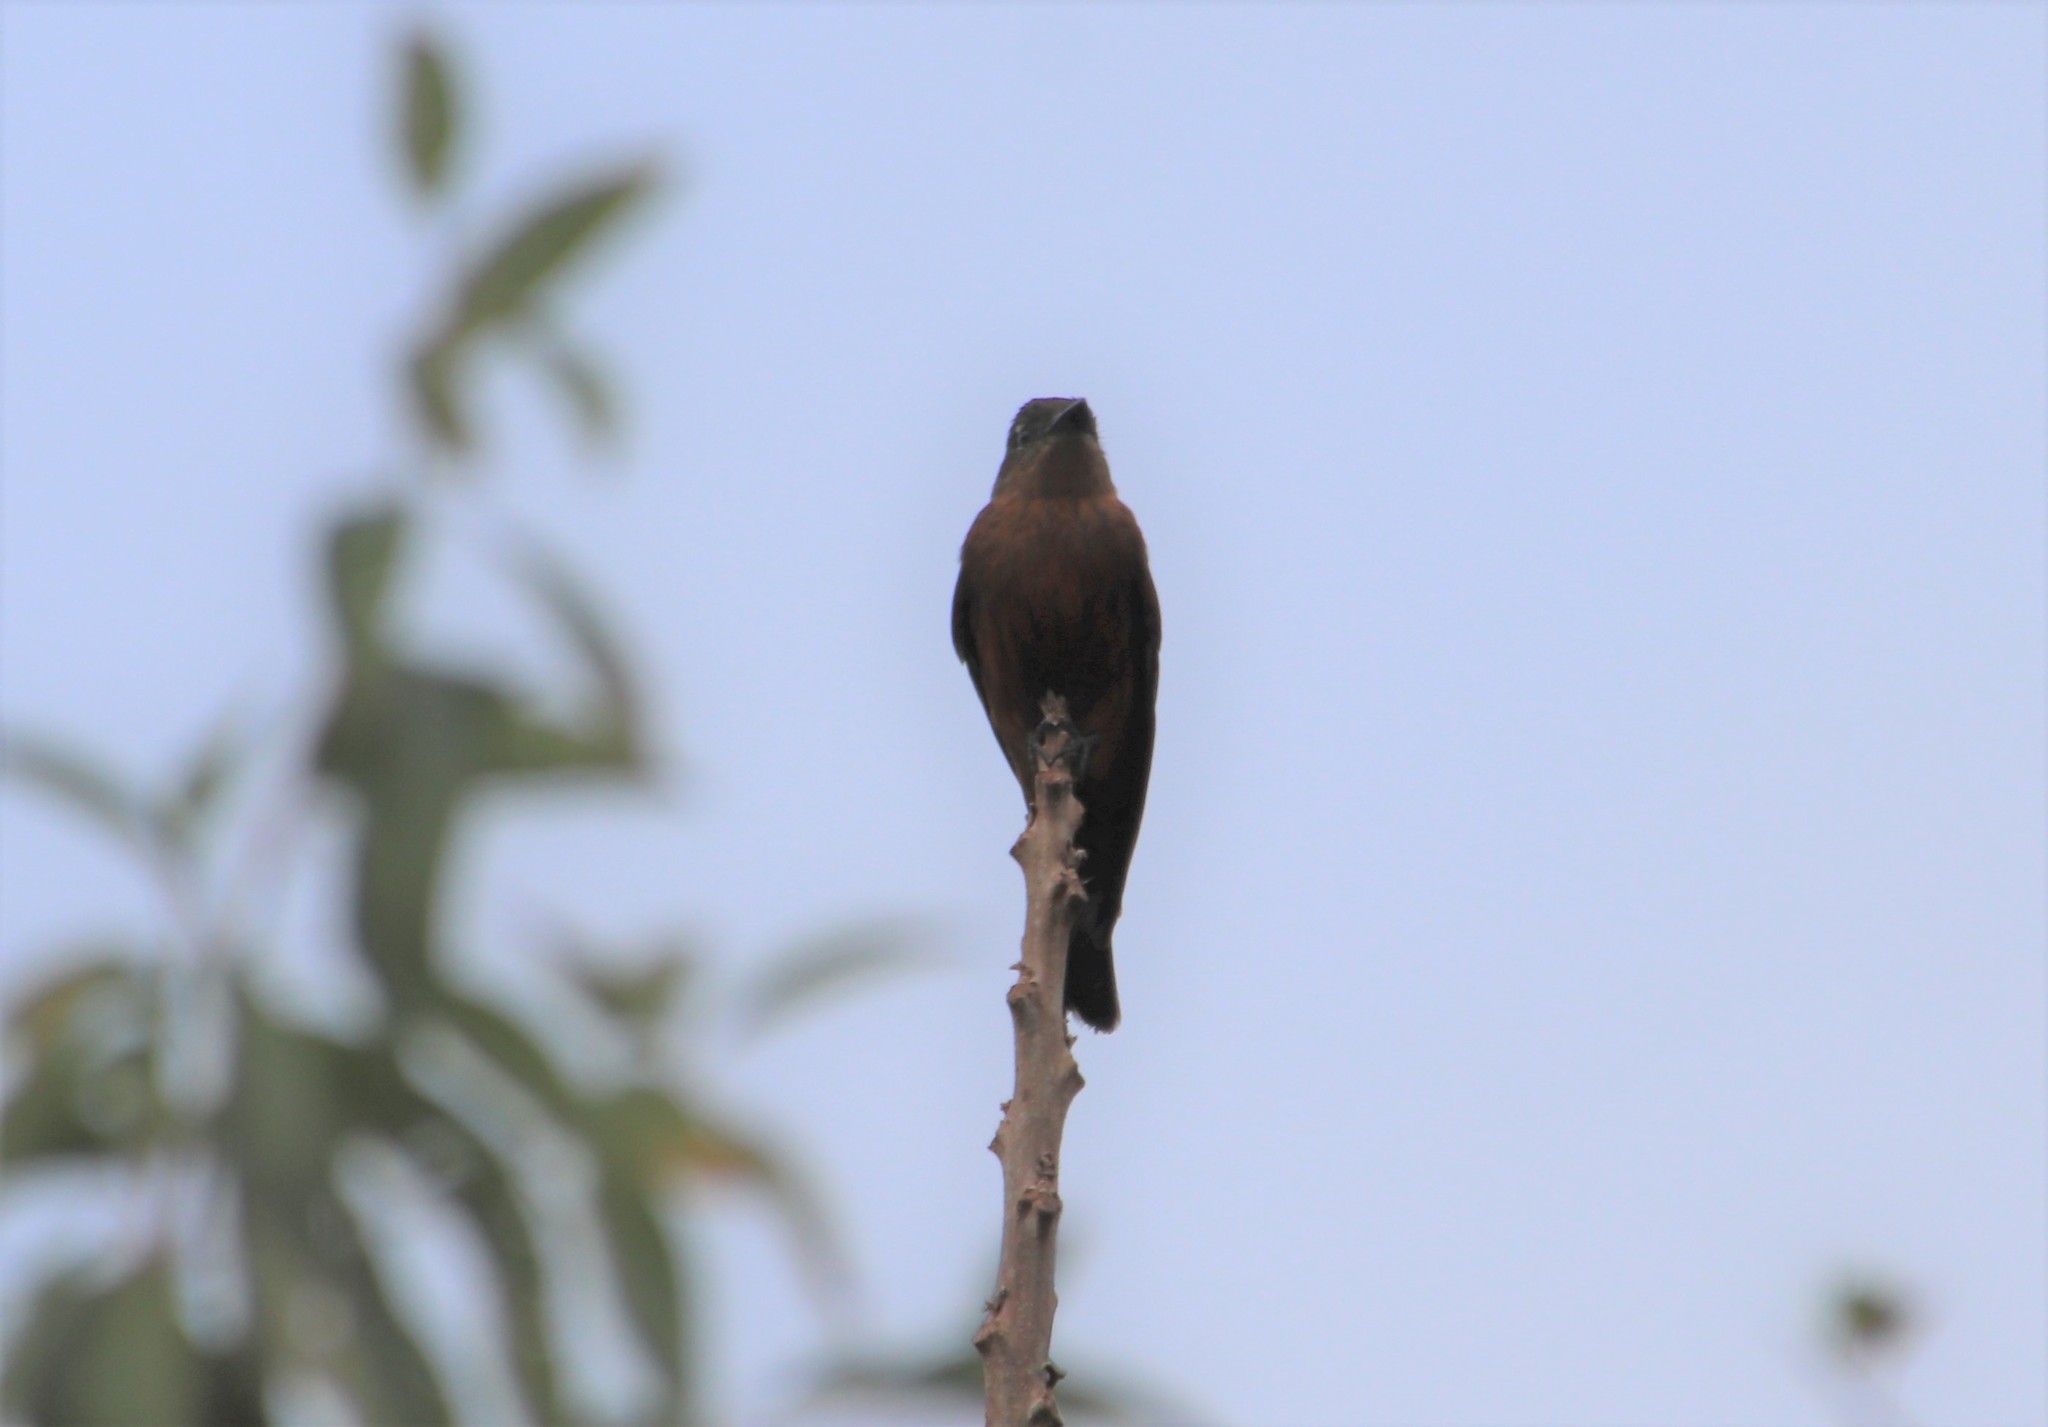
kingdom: Animalia
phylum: Chordata
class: Aves
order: Passeriformes
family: Tyrannidae
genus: Hirundinea
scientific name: Hirundinea ferruginea
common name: Cliff flycatcher
